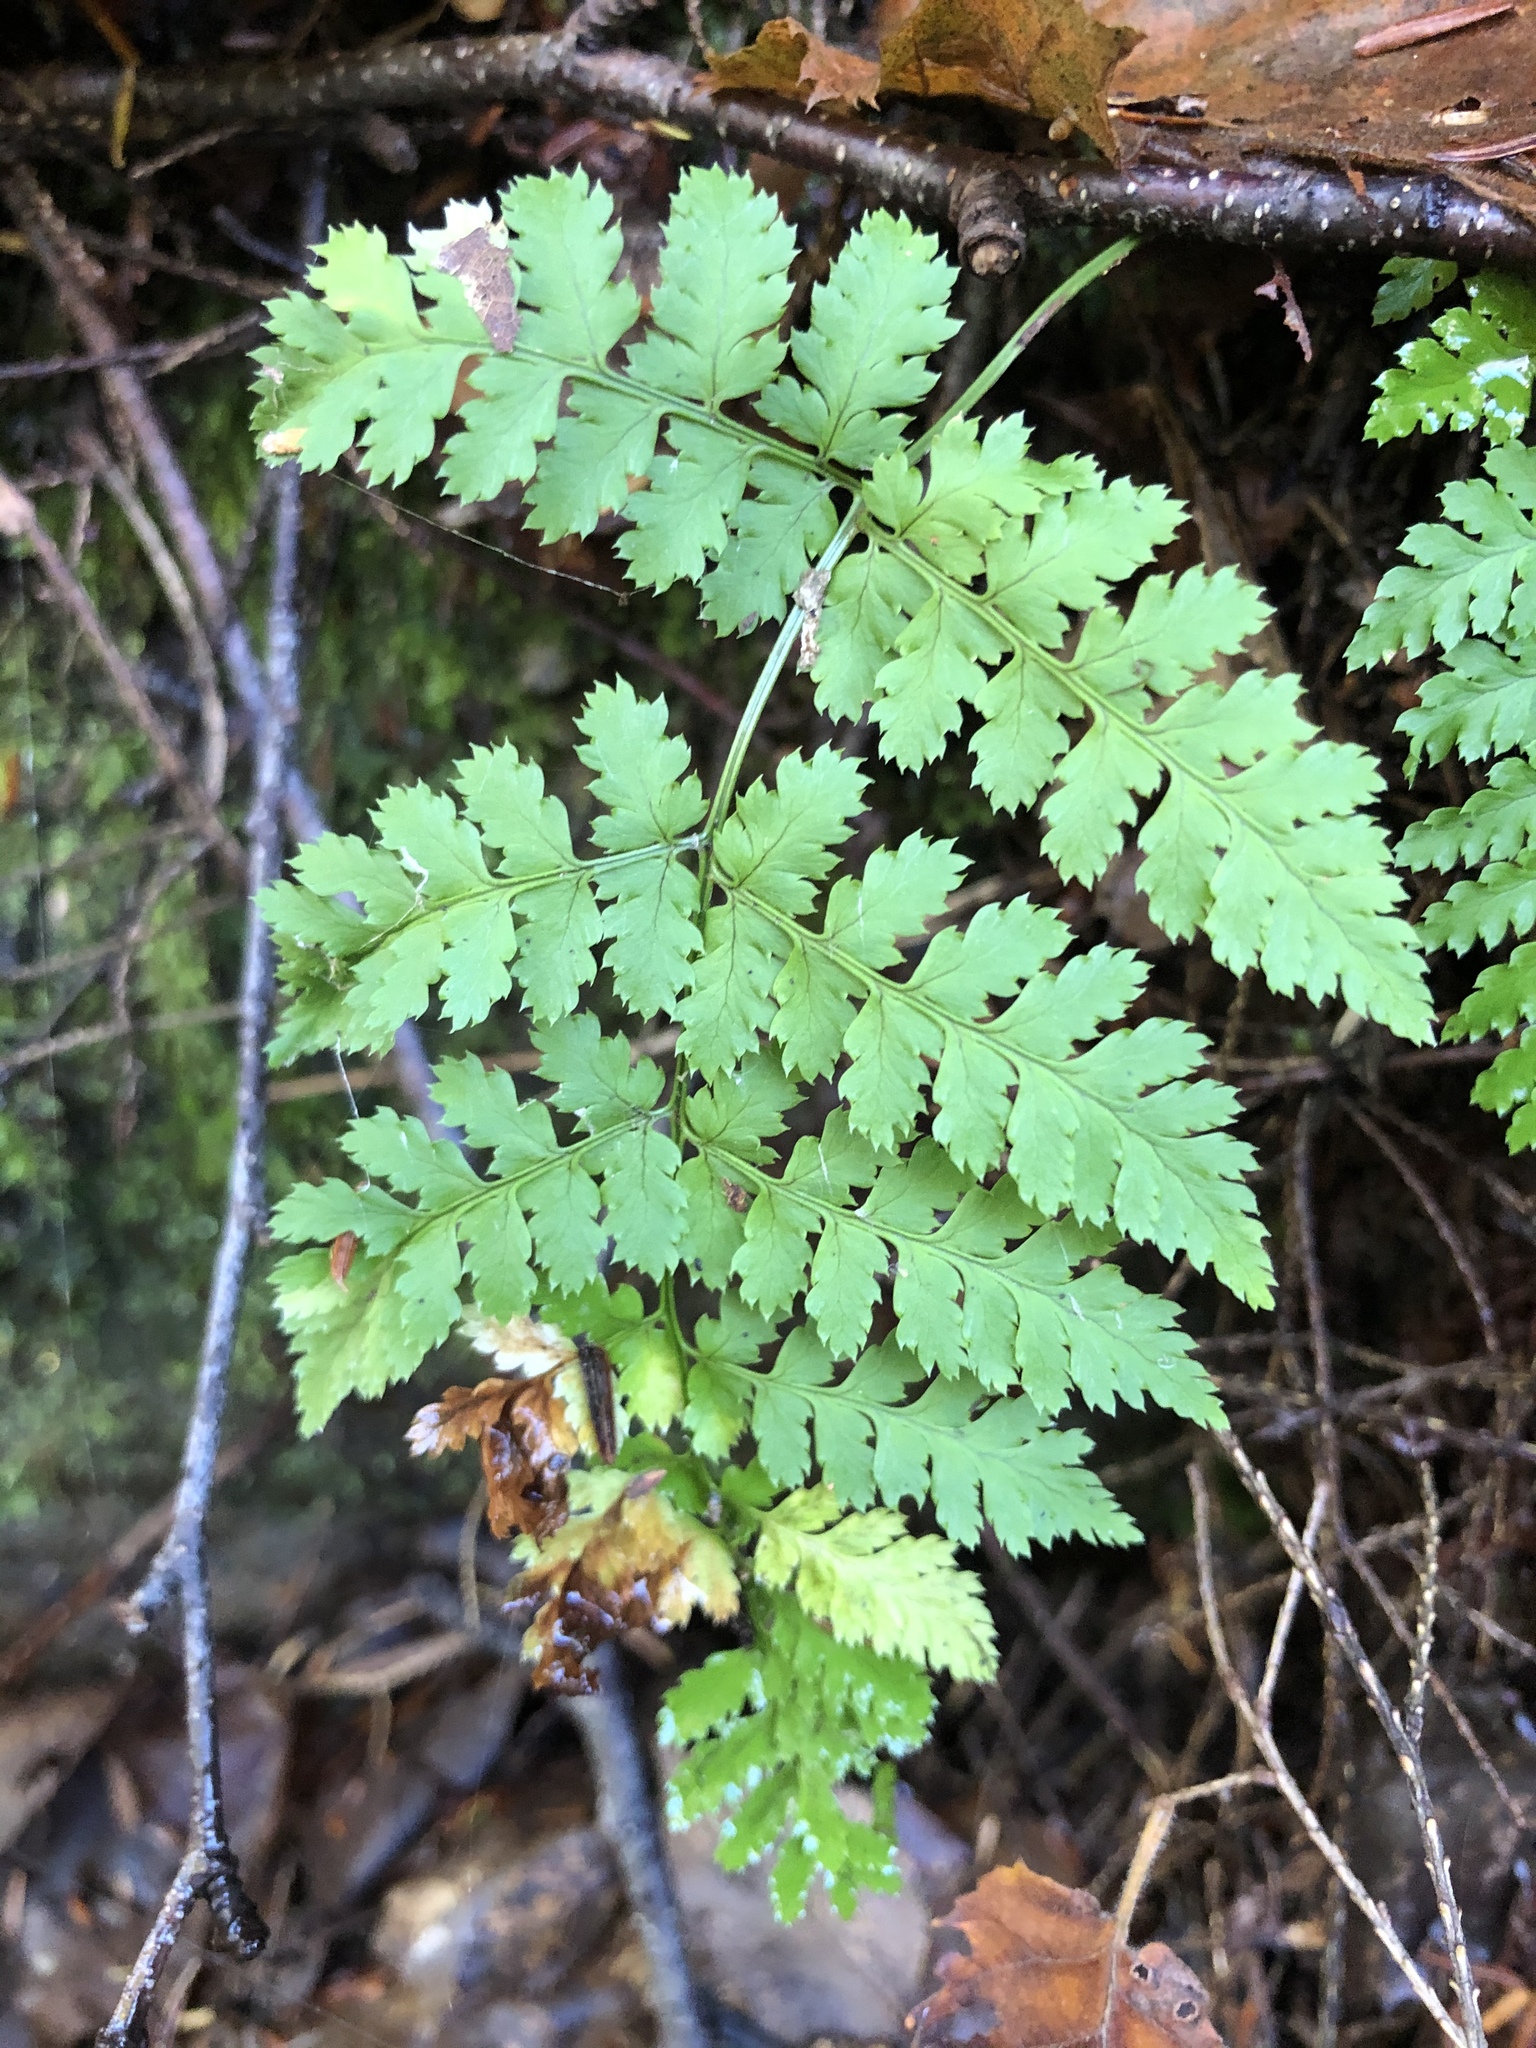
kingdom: Plantae
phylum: Tracheophyta
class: Polypodiopsida
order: Polypodiales
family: Dryopteridaceae
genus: Dryopteris
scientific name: Dryopteris intermedia
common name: Evergreen wood fern
